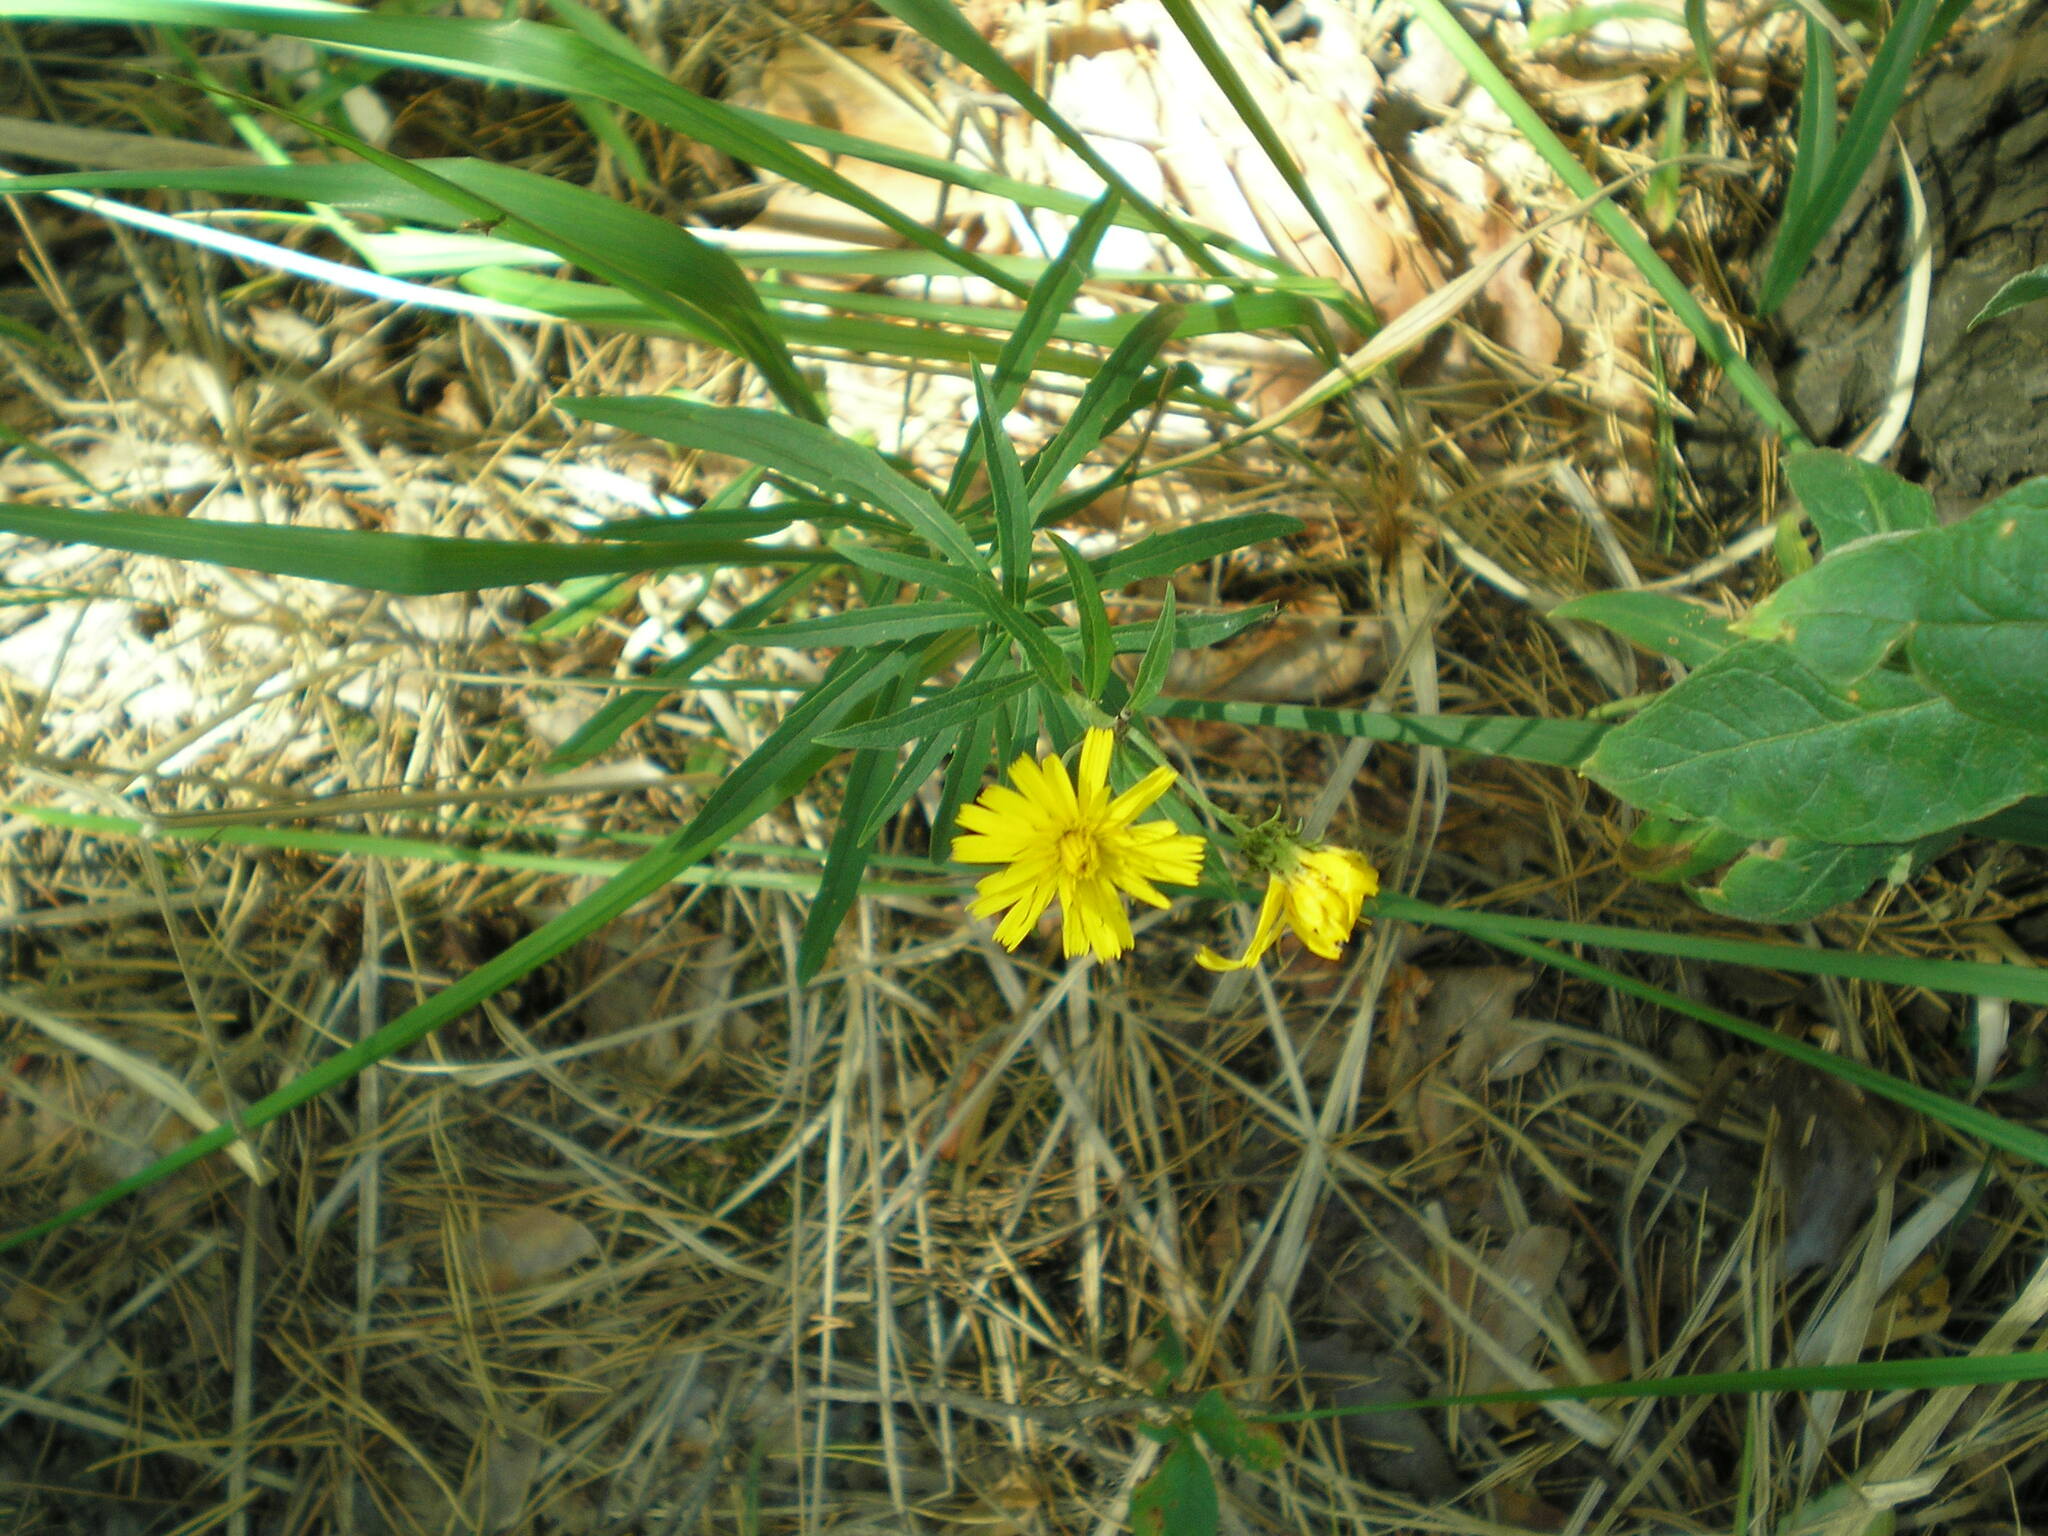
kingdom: Plantae
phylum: Tracheophyta
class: Magnoliopsida
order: Asterales
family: Asteraceae
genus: Hieracium
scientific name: Hieracium umbellatum
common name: Northern hawkweed
